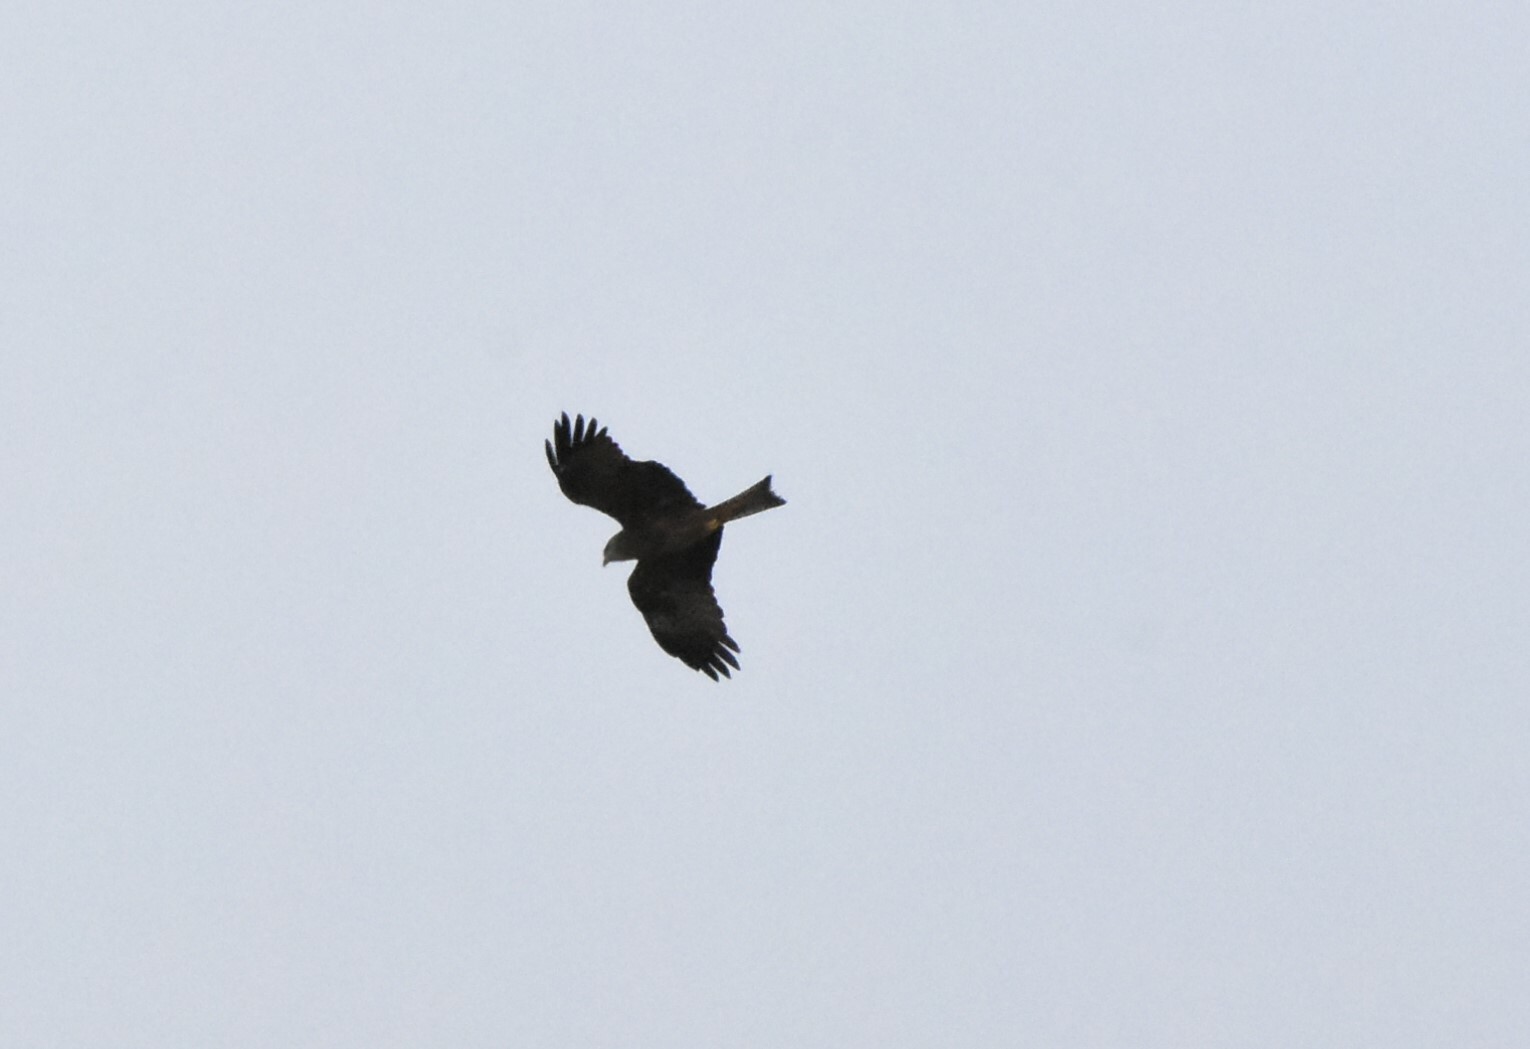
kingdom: Animalia
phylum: Chordata
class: Aves
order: Accipitriformes
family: Accipitridae
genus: Milvus
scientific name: Milvus migrans
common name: Black kite
